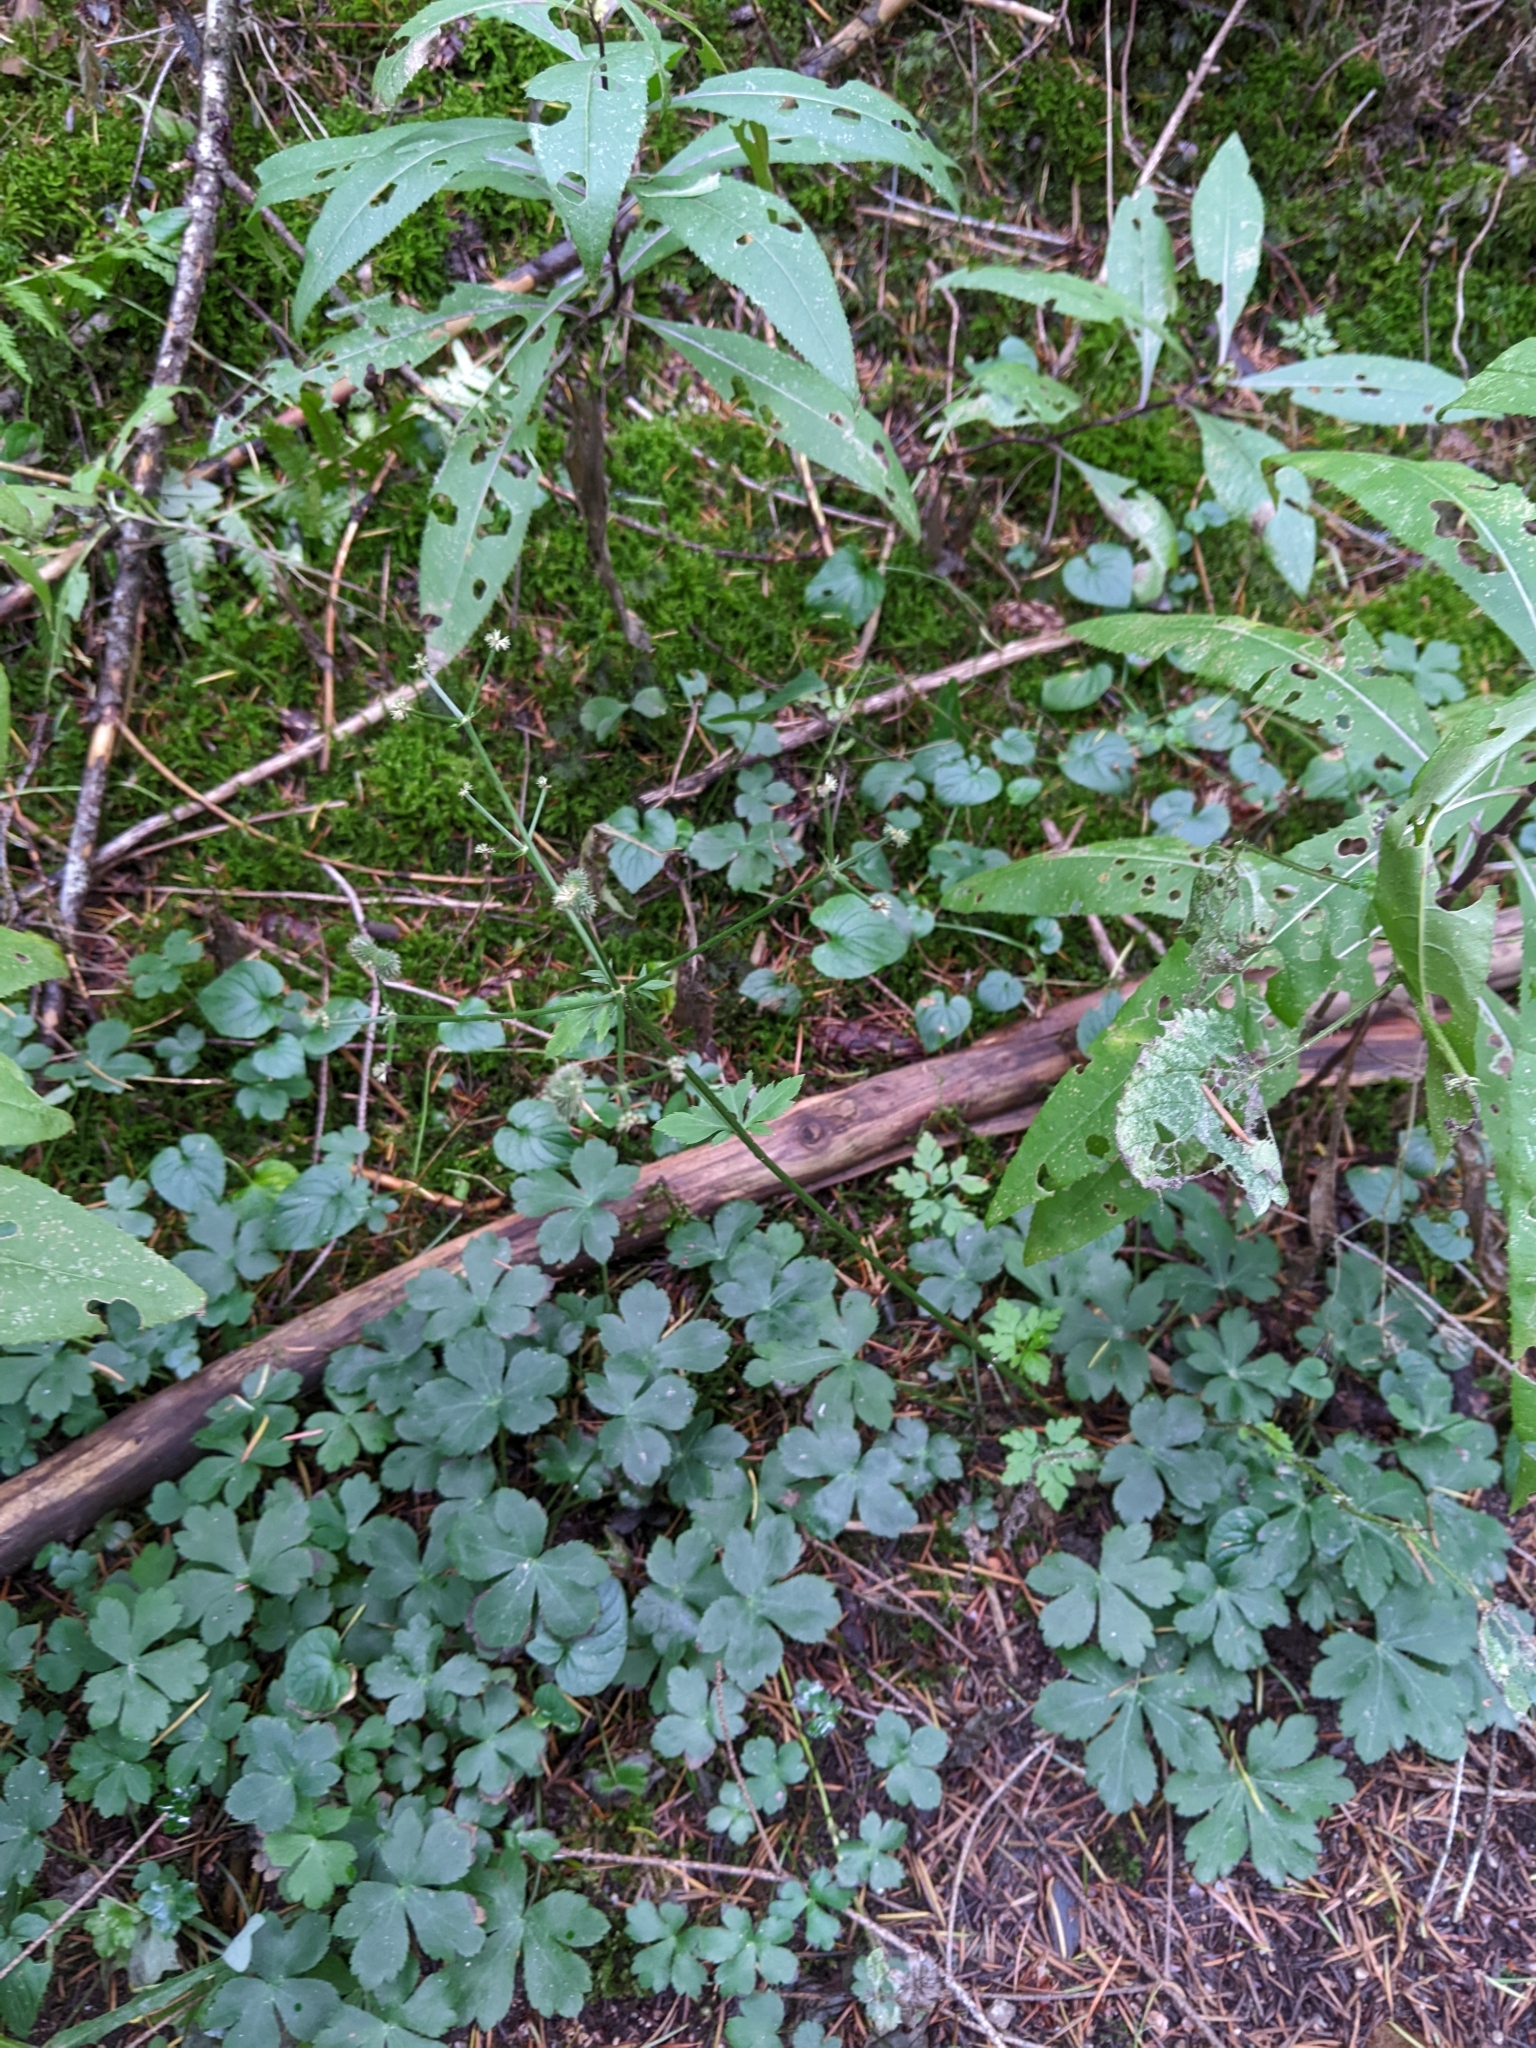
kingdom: Plantae
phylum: Tracheophyta
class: Magnoliopsida
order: Apiales
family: Apiaceae
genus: Sanicula
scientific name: Sanicula europaea
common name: Sanicle
